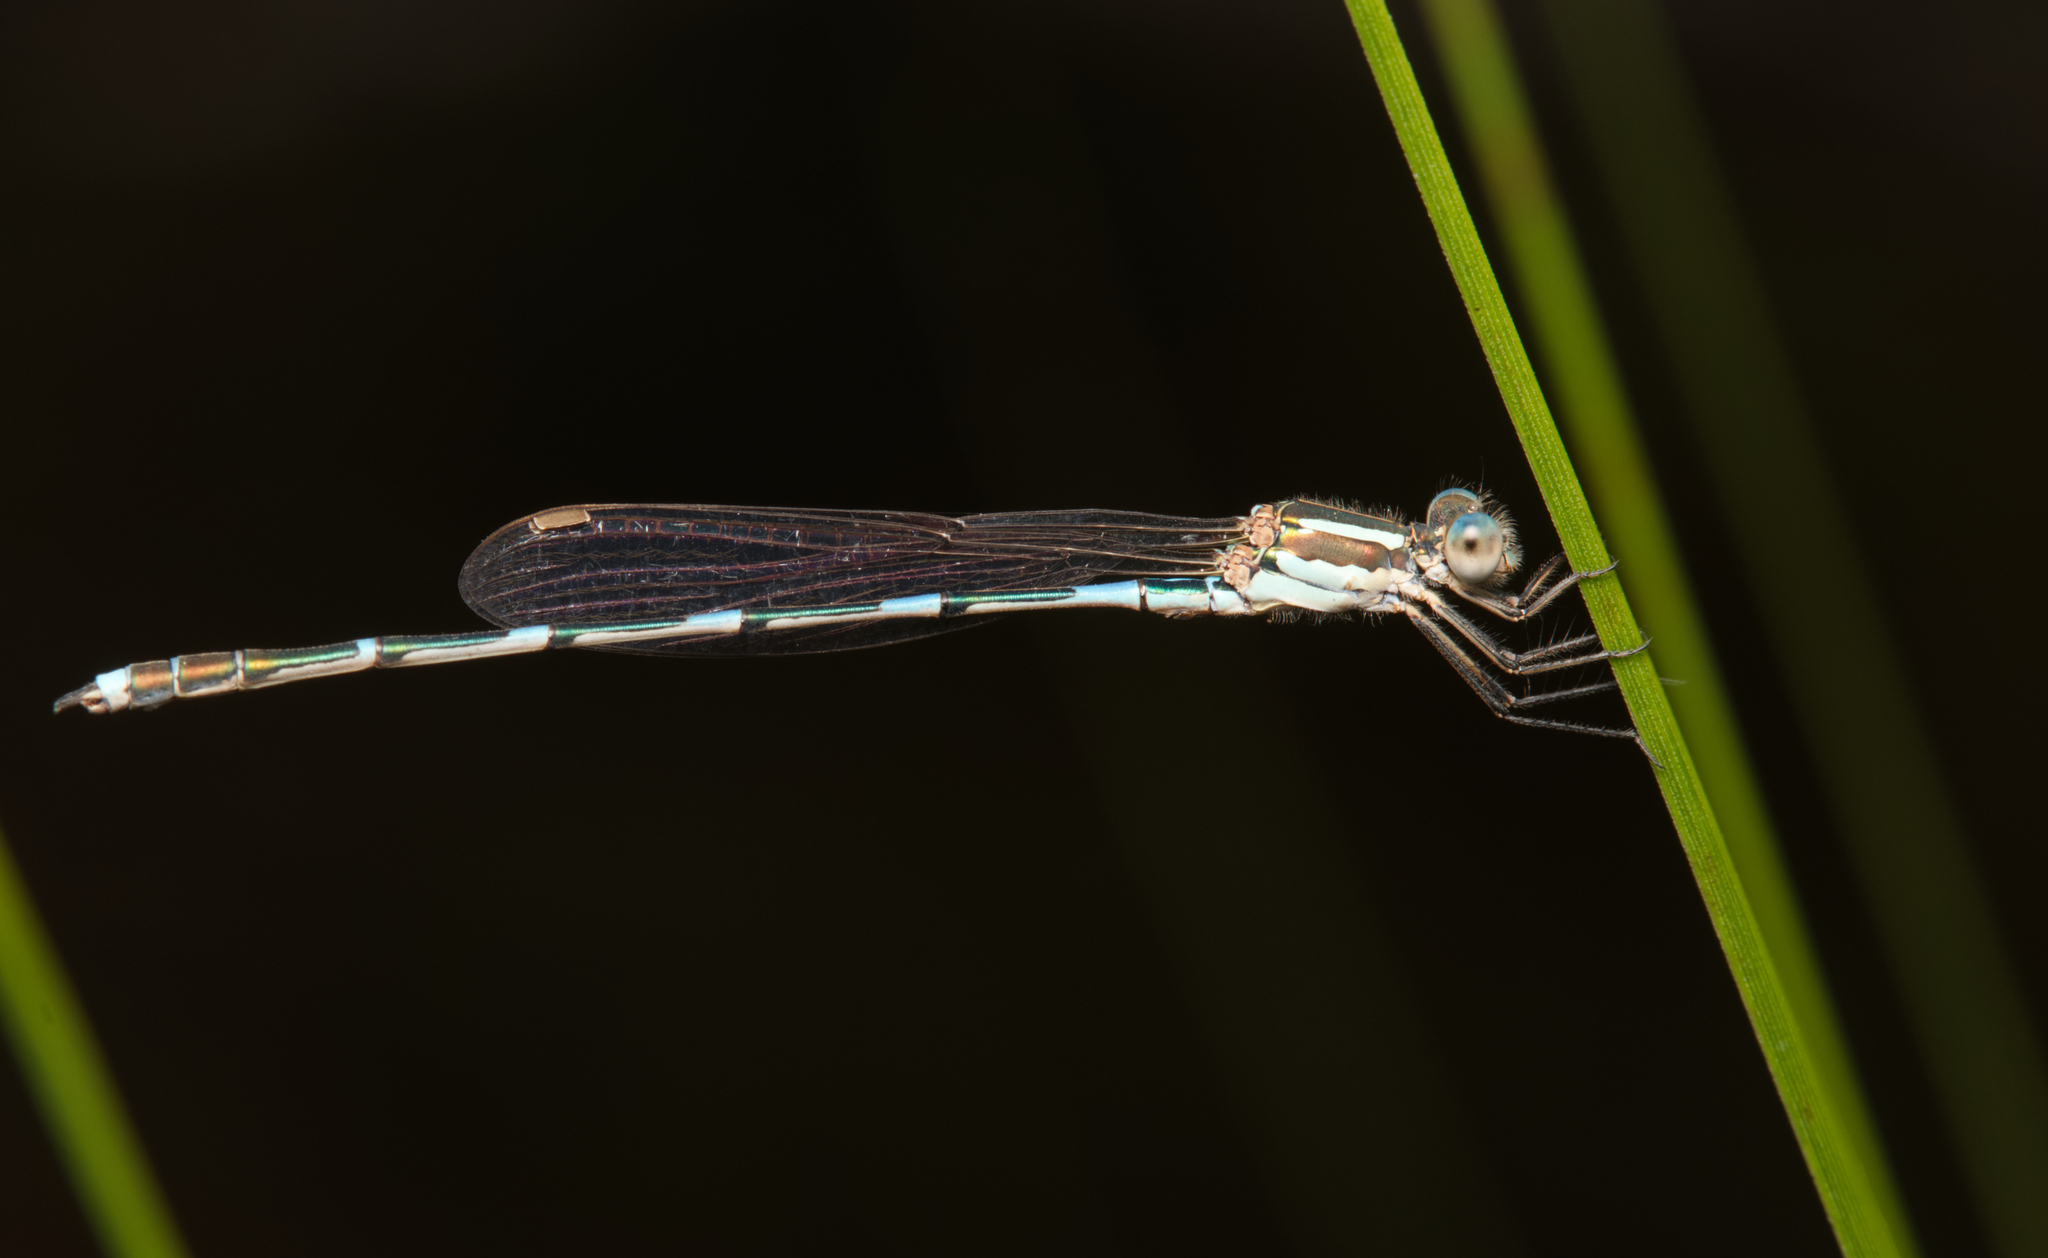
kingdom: Animalia
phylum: Arthropoda
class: Insecta
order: Odonata
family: Lestidae
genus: Austrolestes
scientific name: Austrolestes leda
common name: Wandering ringtail
